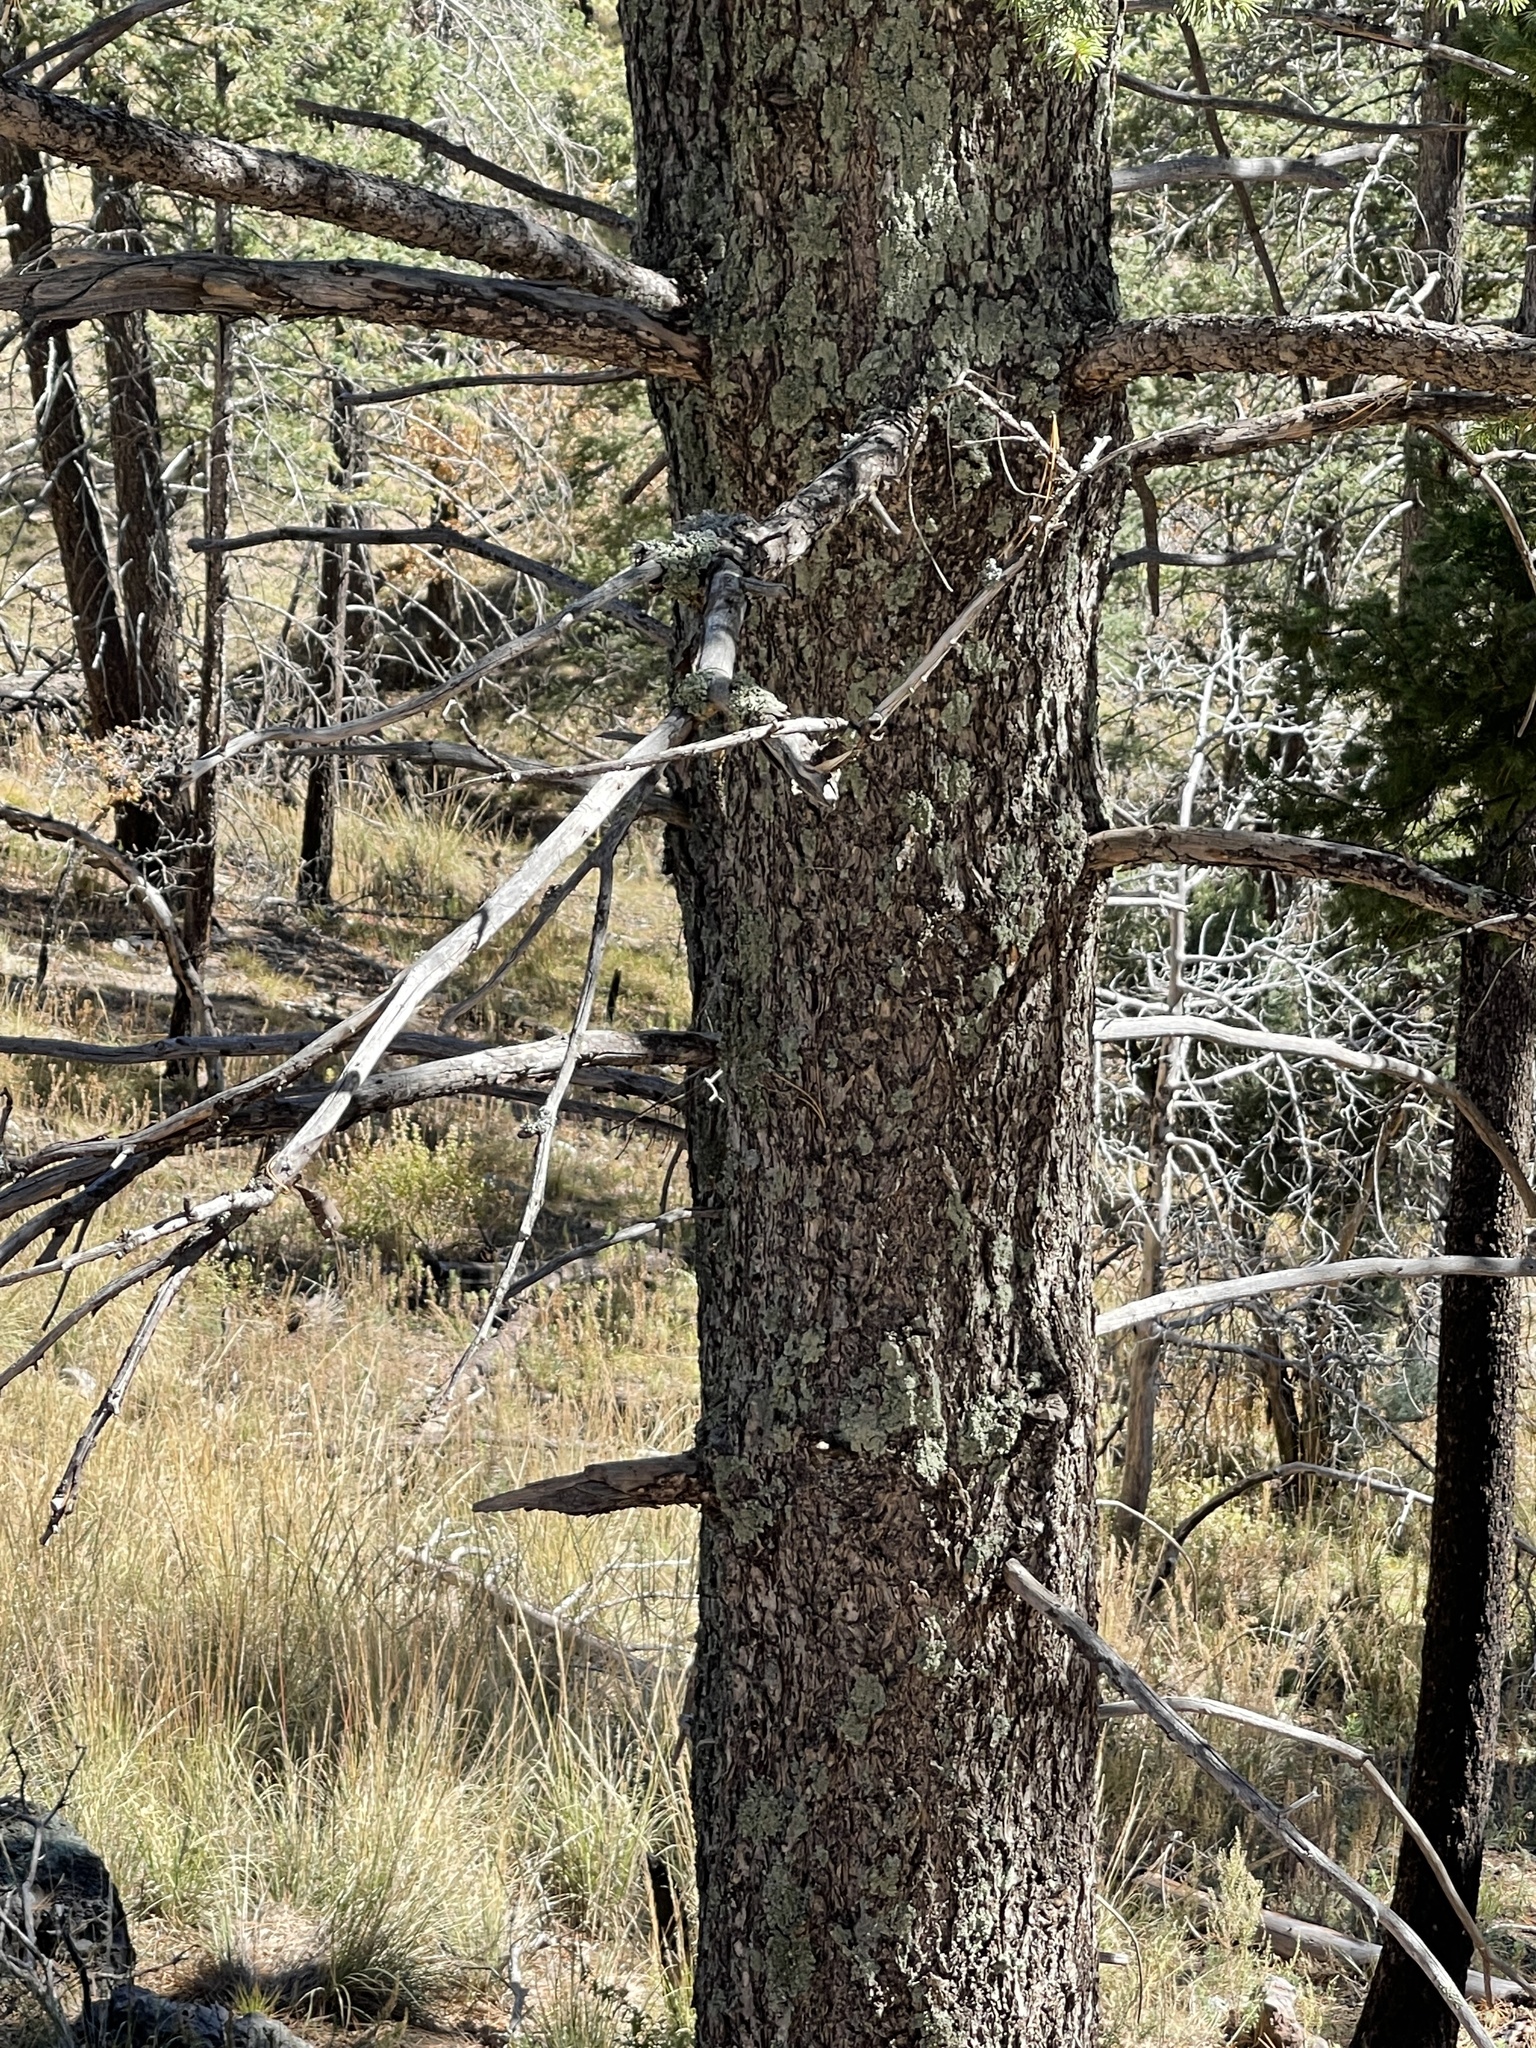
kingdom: Plantae
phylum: Tracheophyta
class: Pinopsida
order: Pinales
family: Pinaceae
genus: Pseudotsuga
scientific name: Pseudotsuga menziesii
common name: Douglas fir
